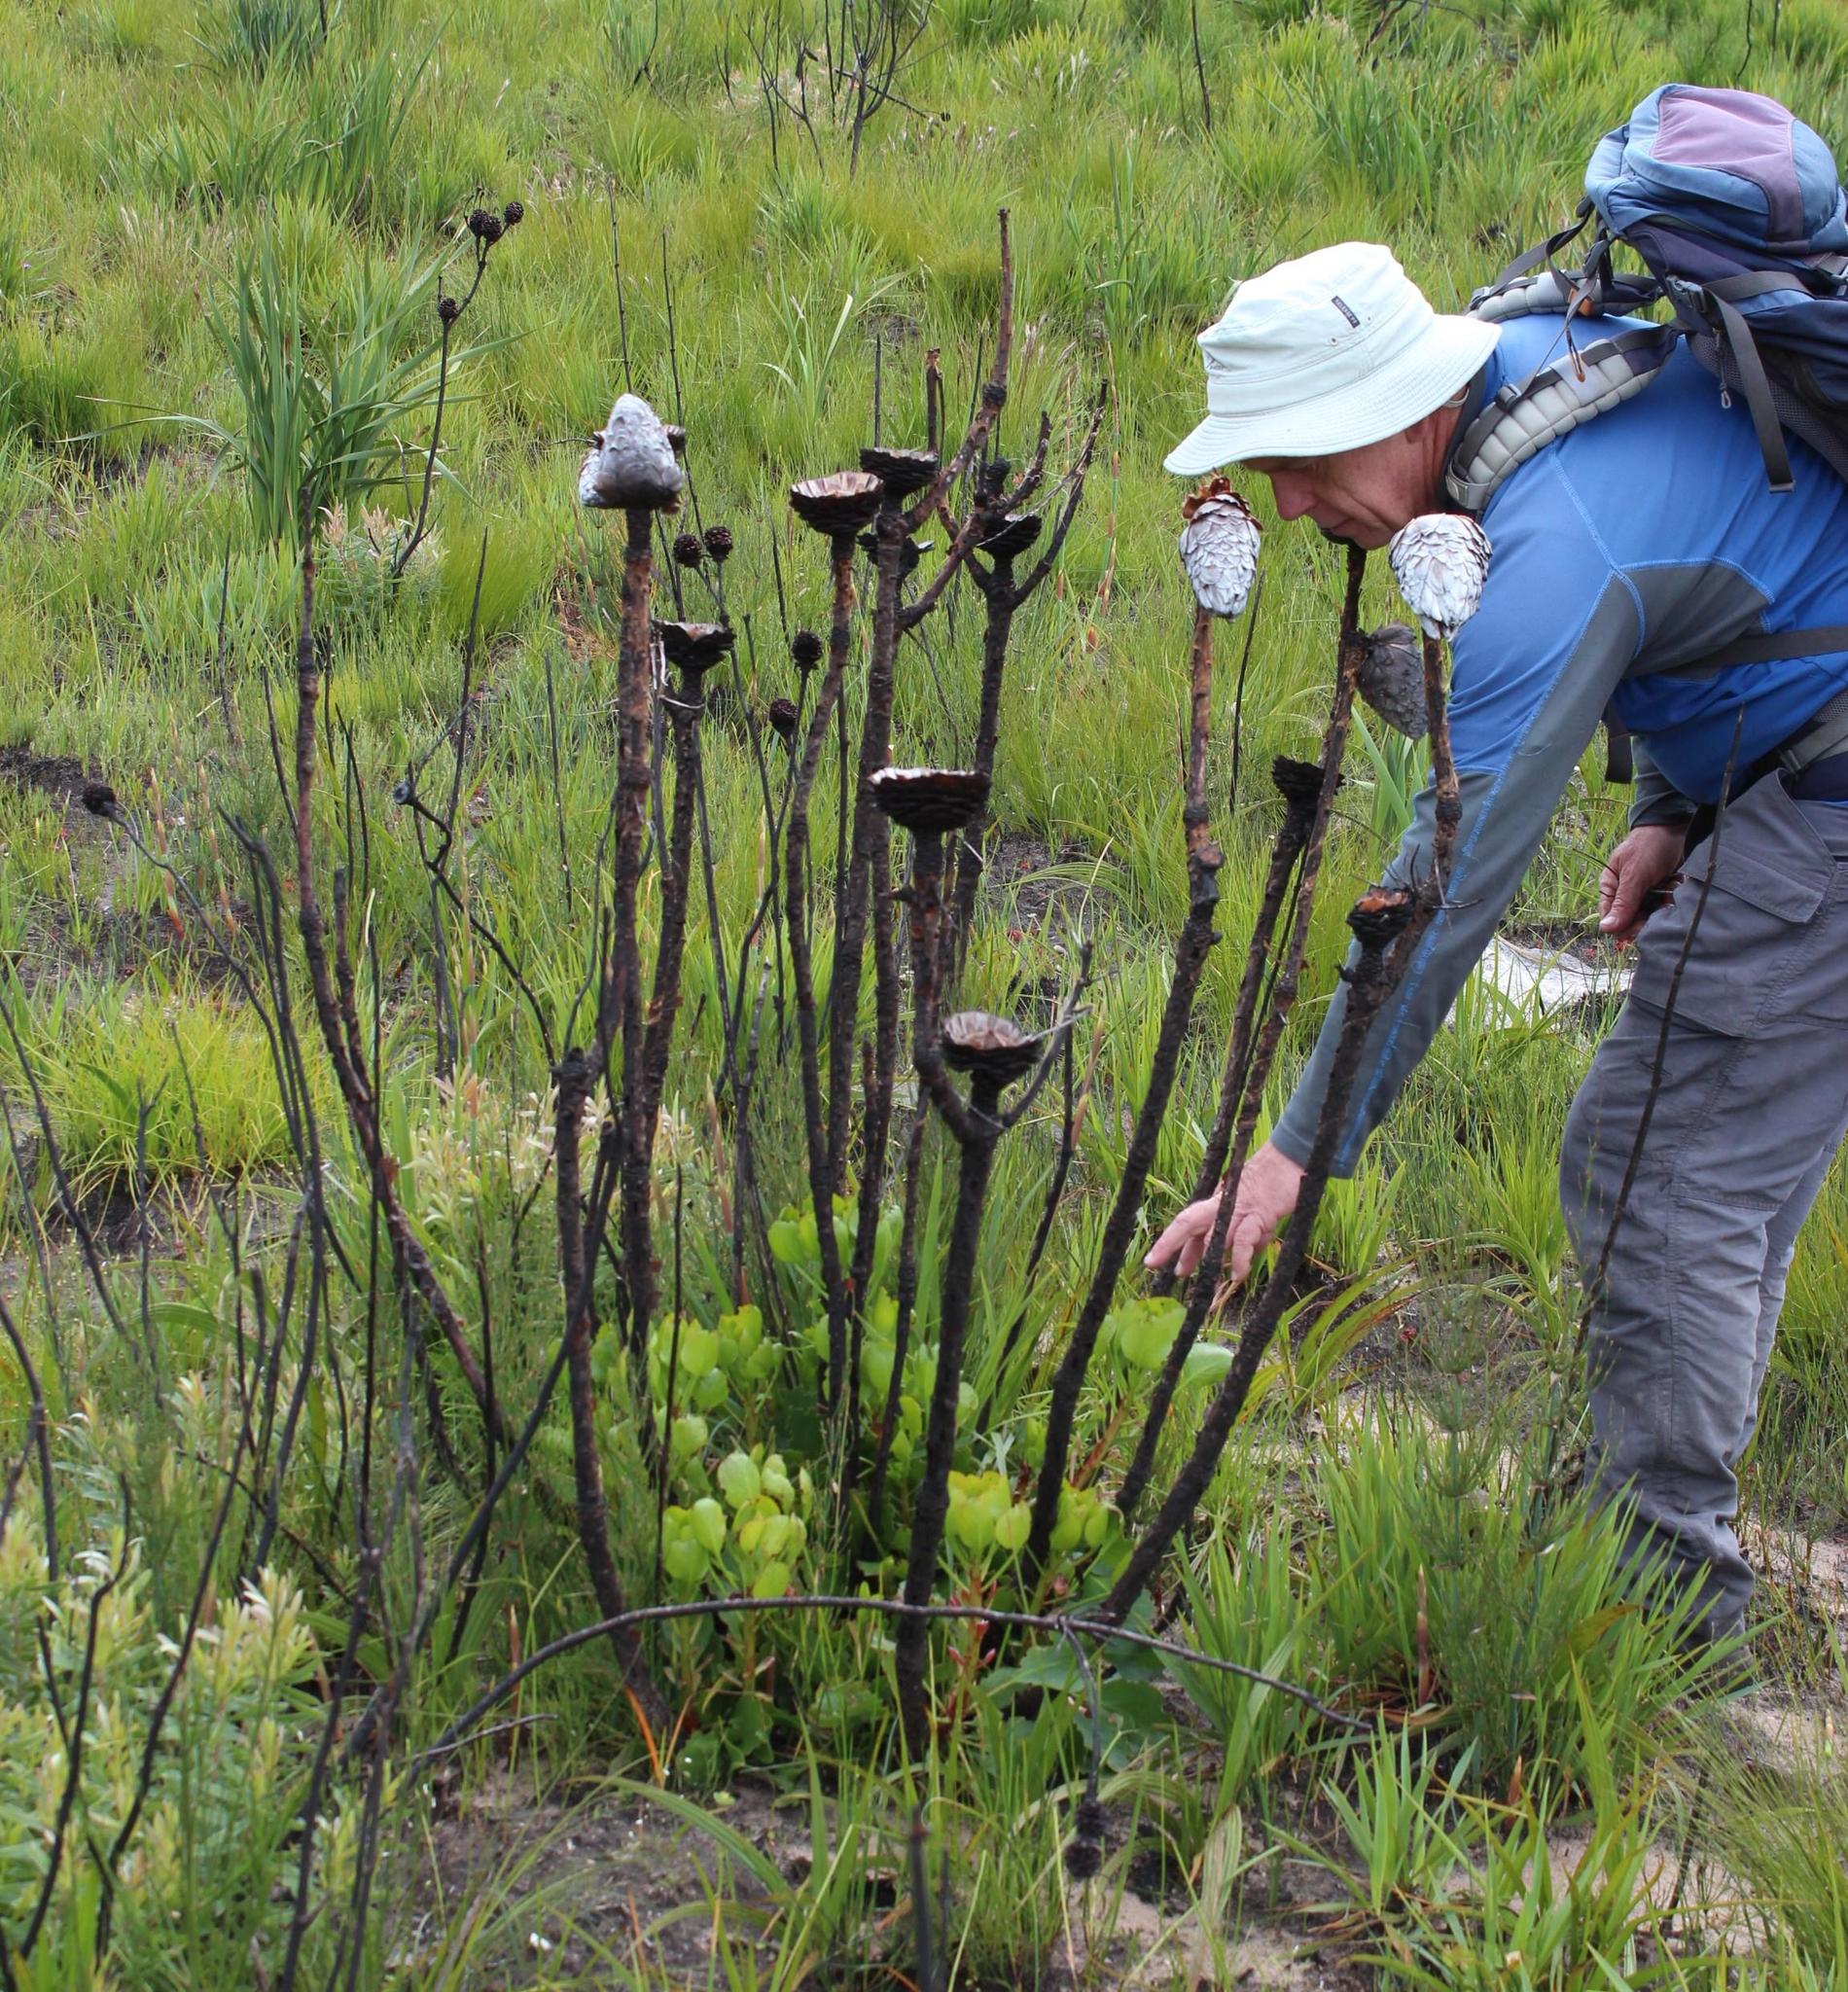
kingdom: Plantae
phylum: Tracheophyta
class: Magnoliopsida
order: Proteales
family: Proteaceae
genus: Protea
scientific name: Protea cynaroides
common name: King protea
